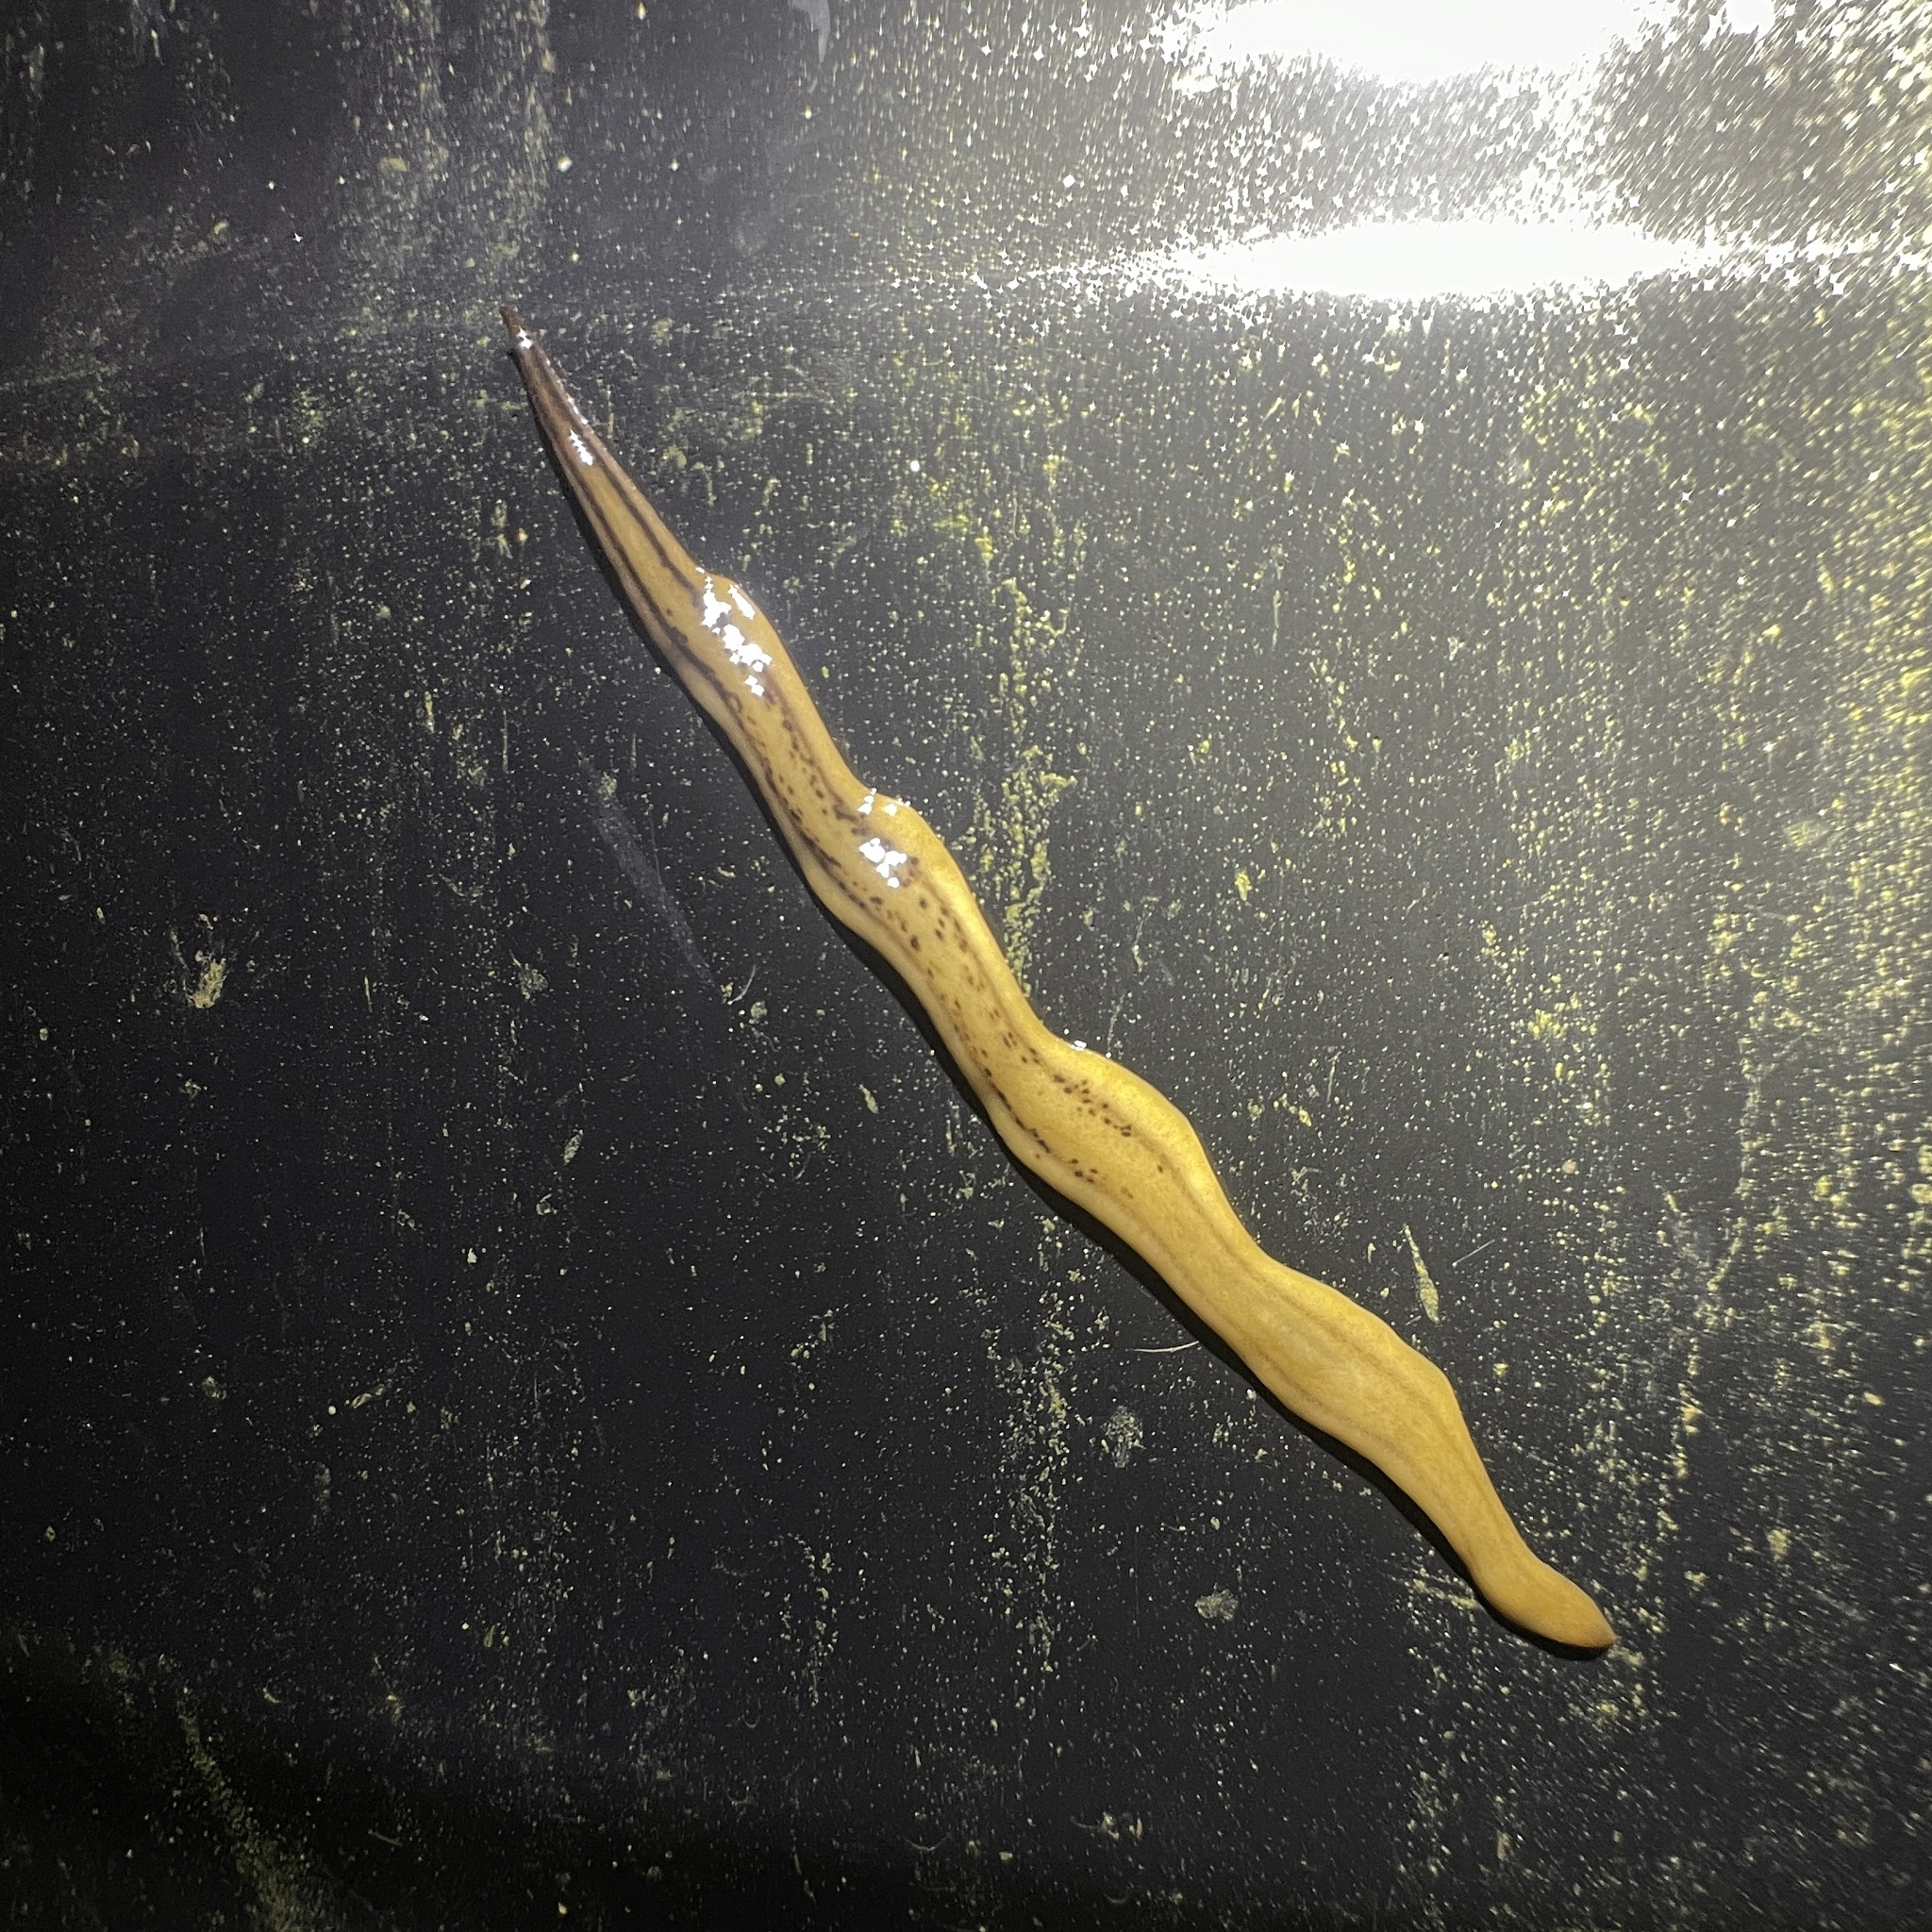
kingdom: Animalia
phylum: Platyhelminthes
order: Tricladida
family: Geoplanidae
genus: Amaga
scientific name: Amaga expatria
